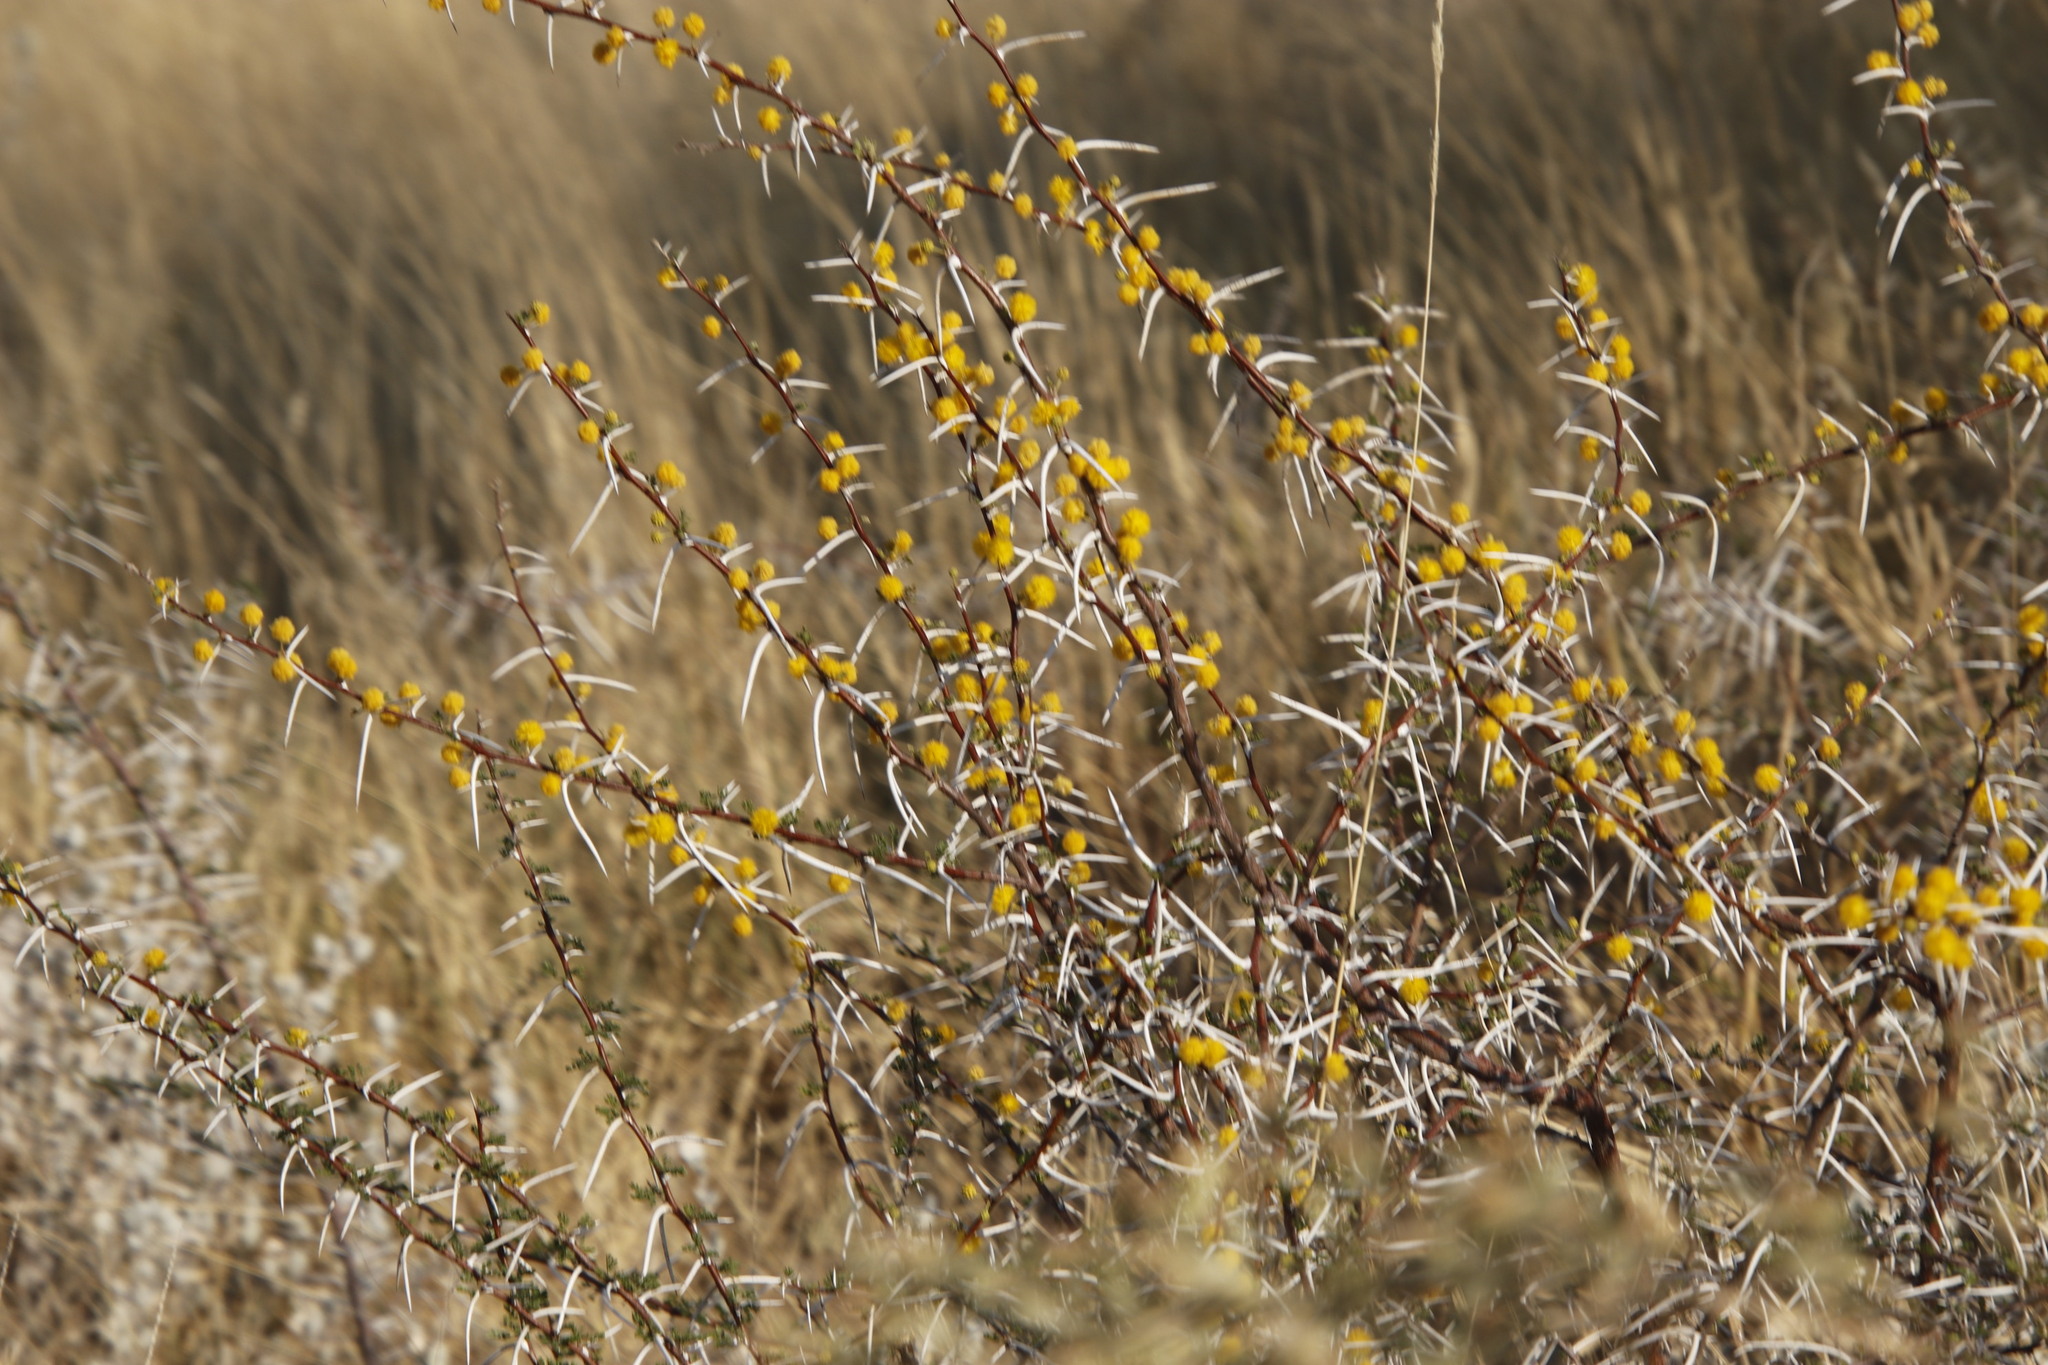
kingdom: Plantae
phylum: Tracheophyta
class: Magnoliopsida
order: Fabales
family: Fabaceae
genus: Vachellia
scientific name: Vachellia nebrownii
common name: Water acacia
